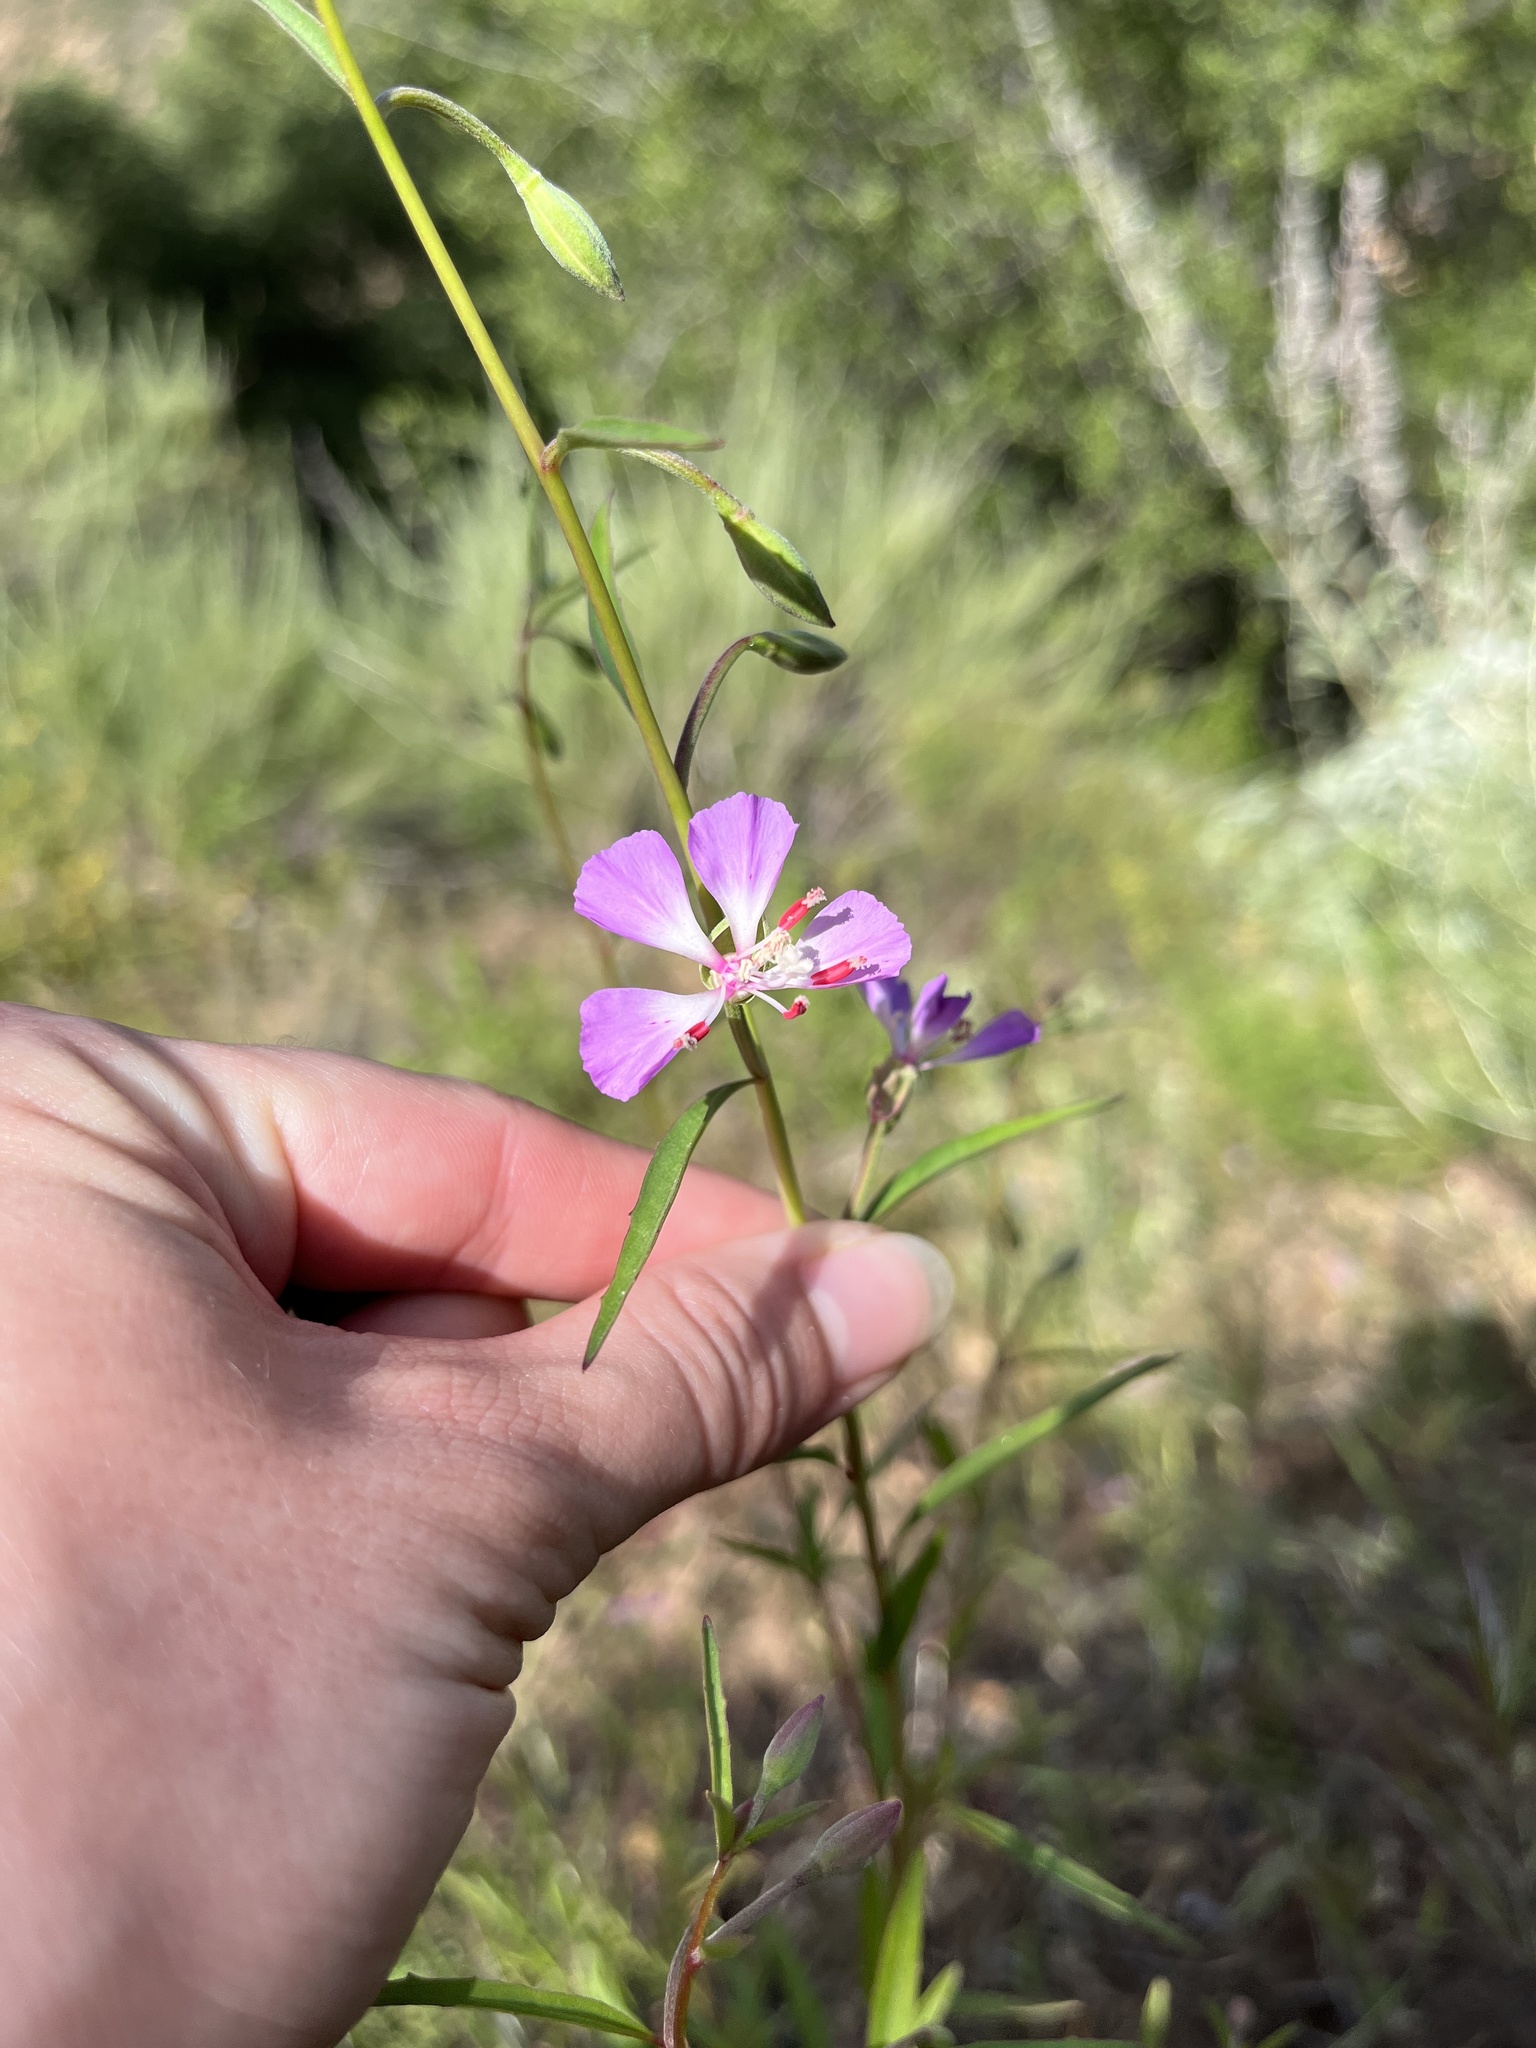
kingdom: Plantae
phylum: Tracheophyta
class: Magnoliopsida
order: Myrtales
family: Onagraceae
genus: Clarkia
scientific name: Clarkia delicata
